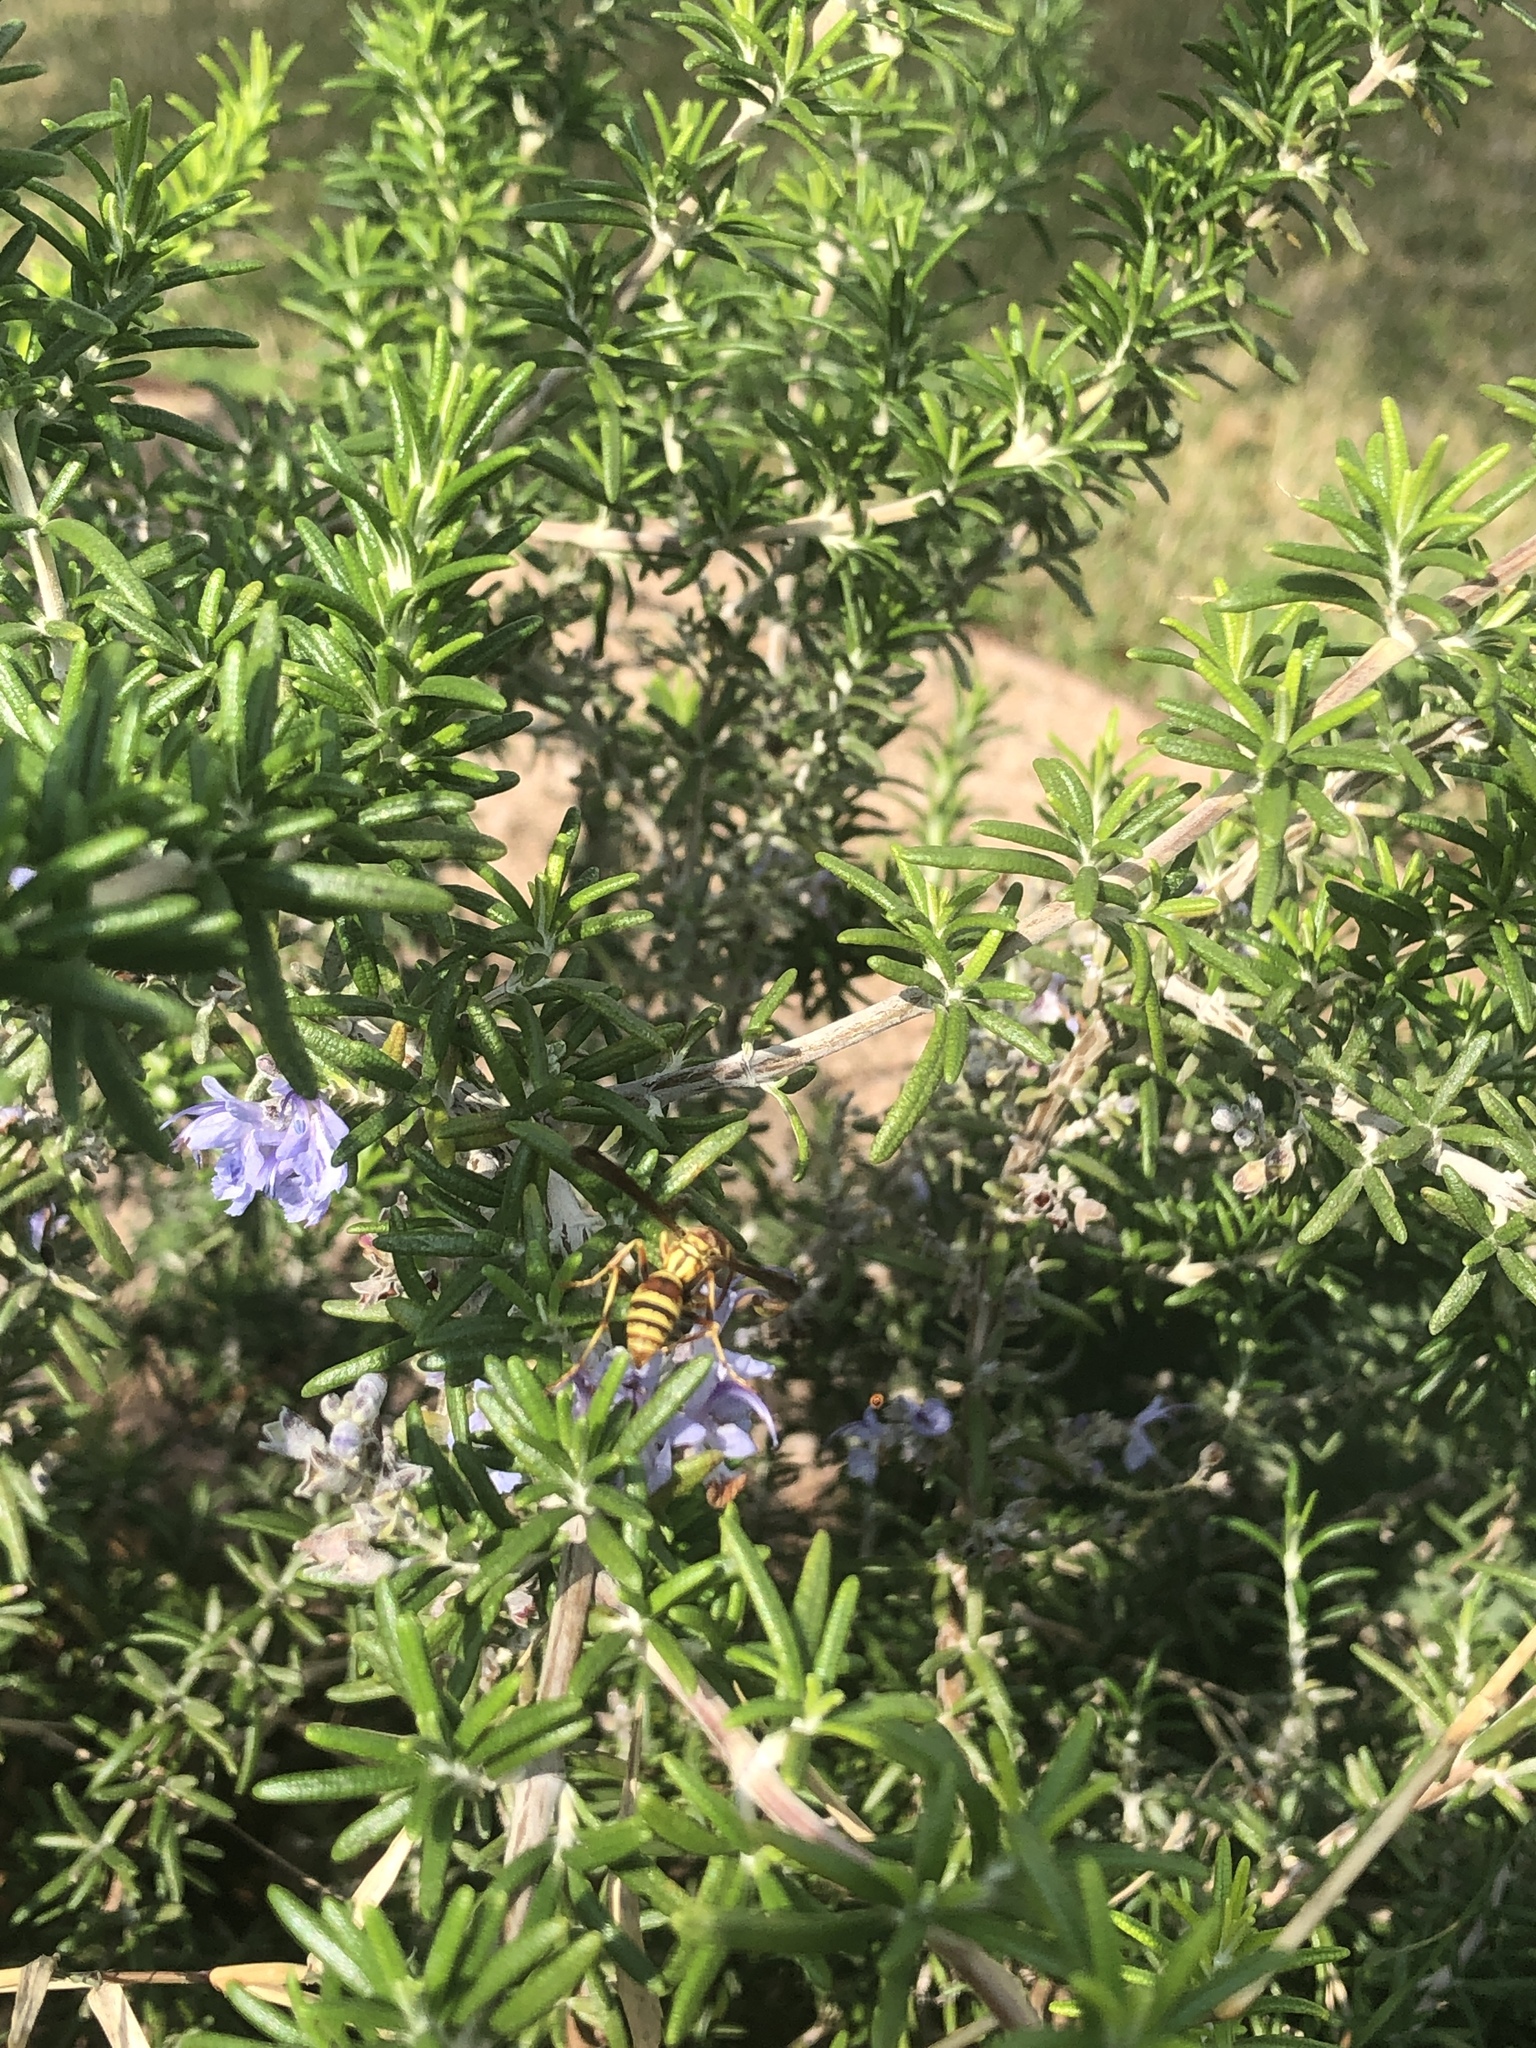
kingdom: Animalia
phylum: Arthropoda
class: Insecta
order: Hymenoptera
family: Eumenidae
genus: Polistes
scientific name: Polistes
